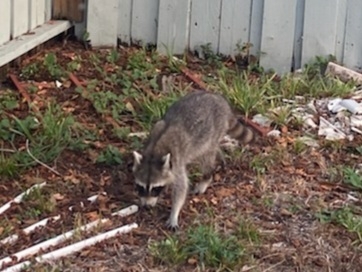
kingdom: Animalia
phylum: Chordata
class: Mammalia
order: Carnivora
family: Procyonidae
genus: Procyon
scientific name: Procyon lotor
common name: Raccoon
